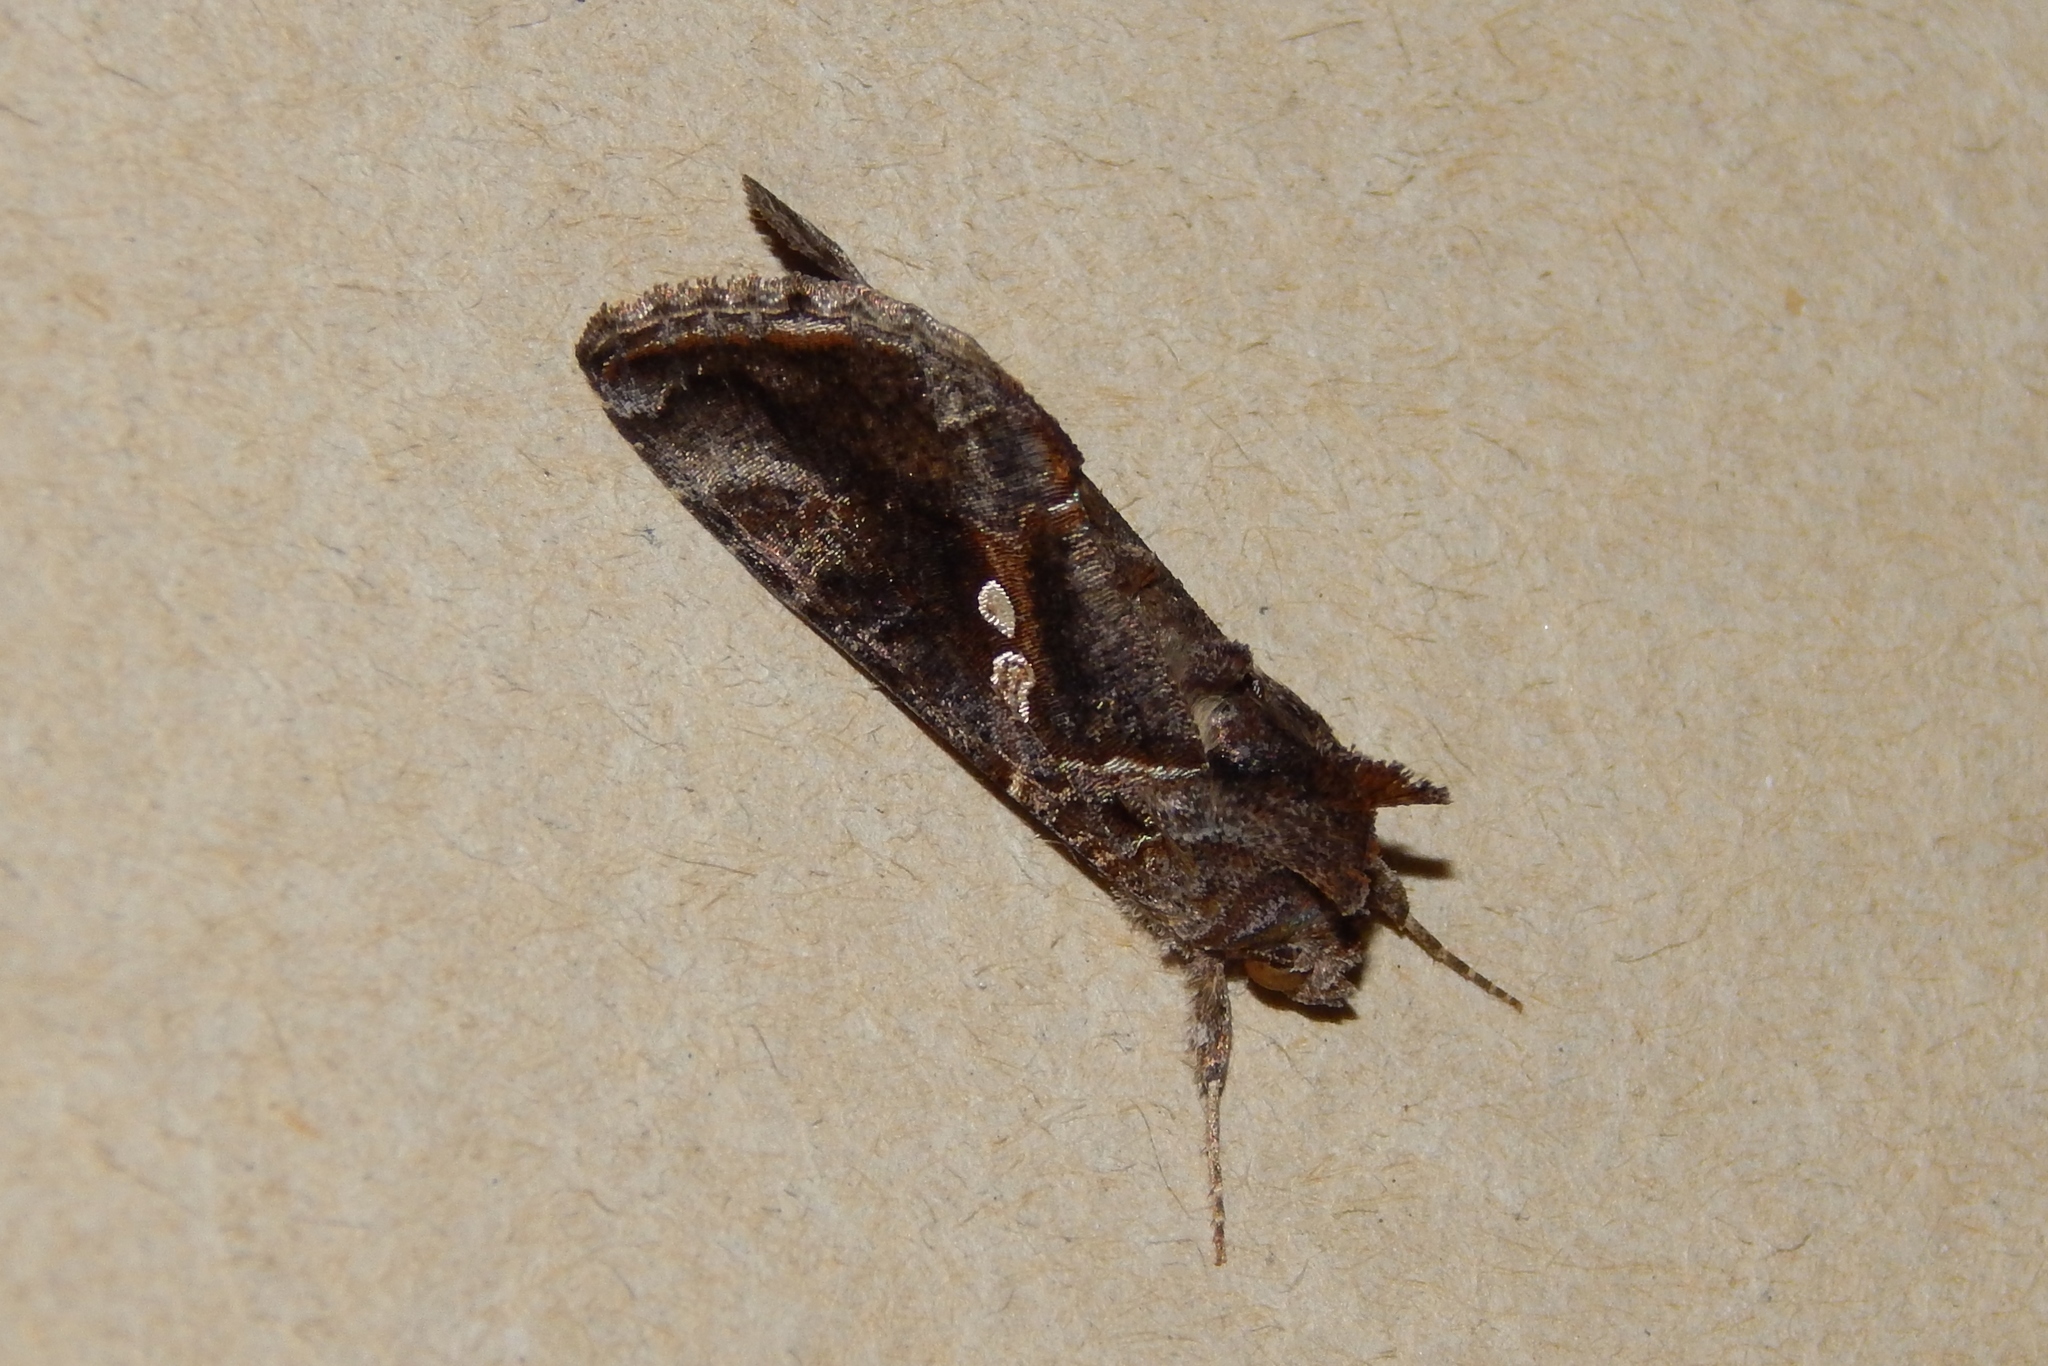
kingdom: Animalia
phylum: Arthropoda
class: Insecta
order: Lepidoptera
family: Noctuidae
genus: Chrysodeixis
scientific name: Chrysodeixis includens
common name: Cutworm moth
